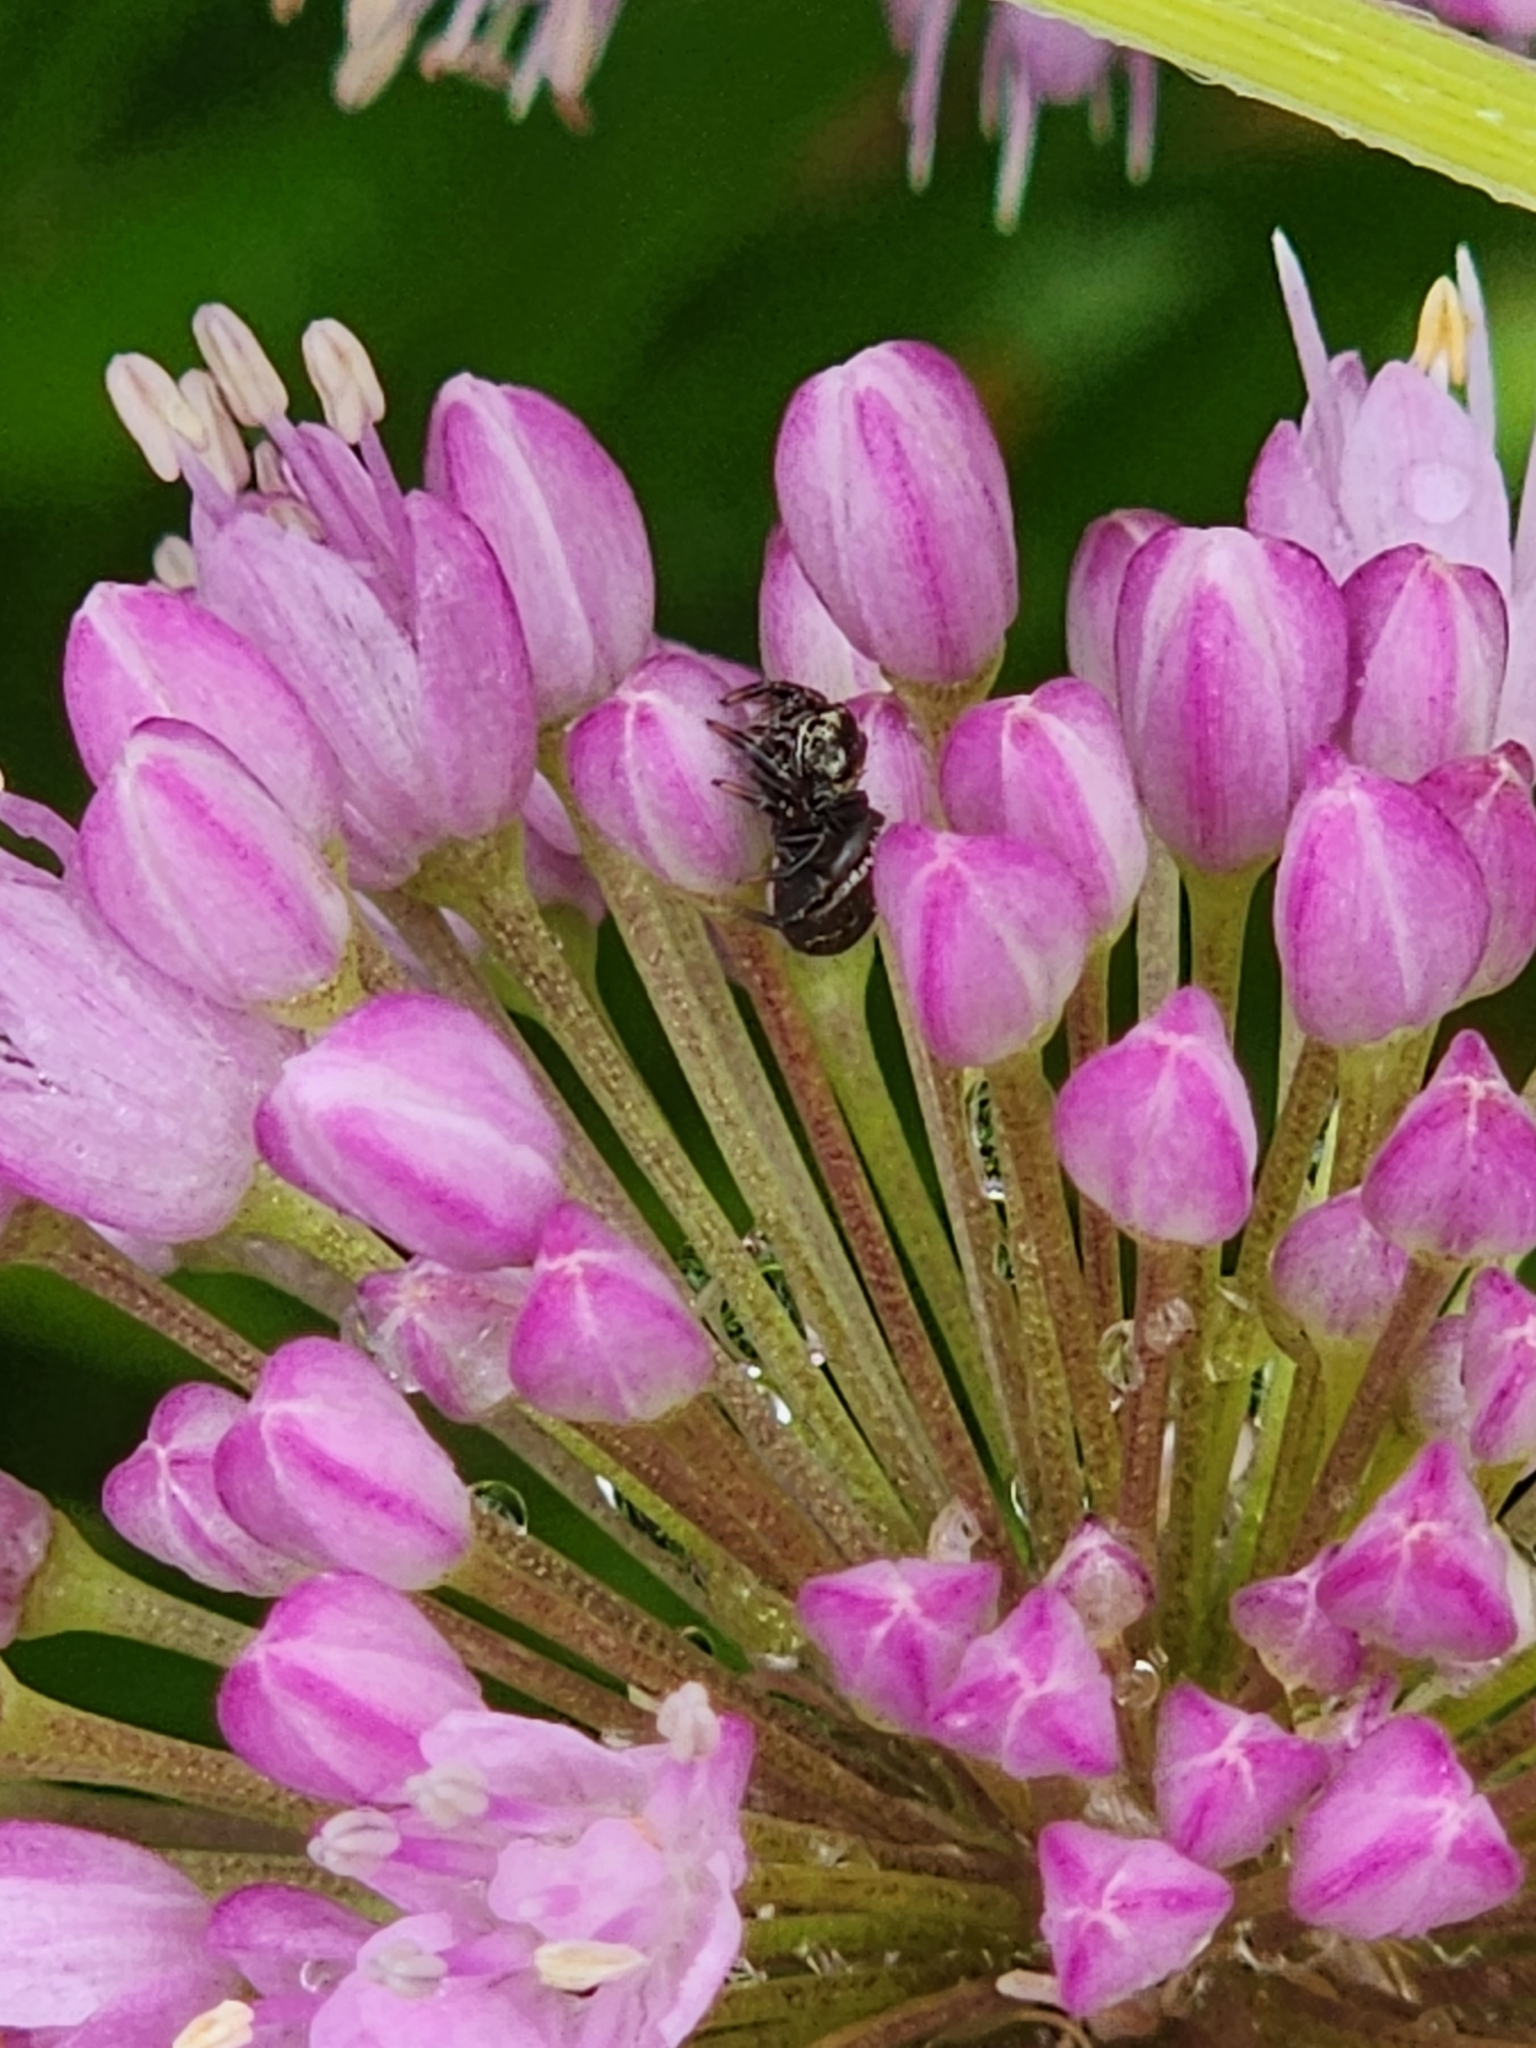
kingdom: Animalia
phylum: Arthropoda
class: Arachnida
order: Araneae
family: Salticidae
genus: Phidippus
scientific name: Phidippus audax
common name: Bold jumper
